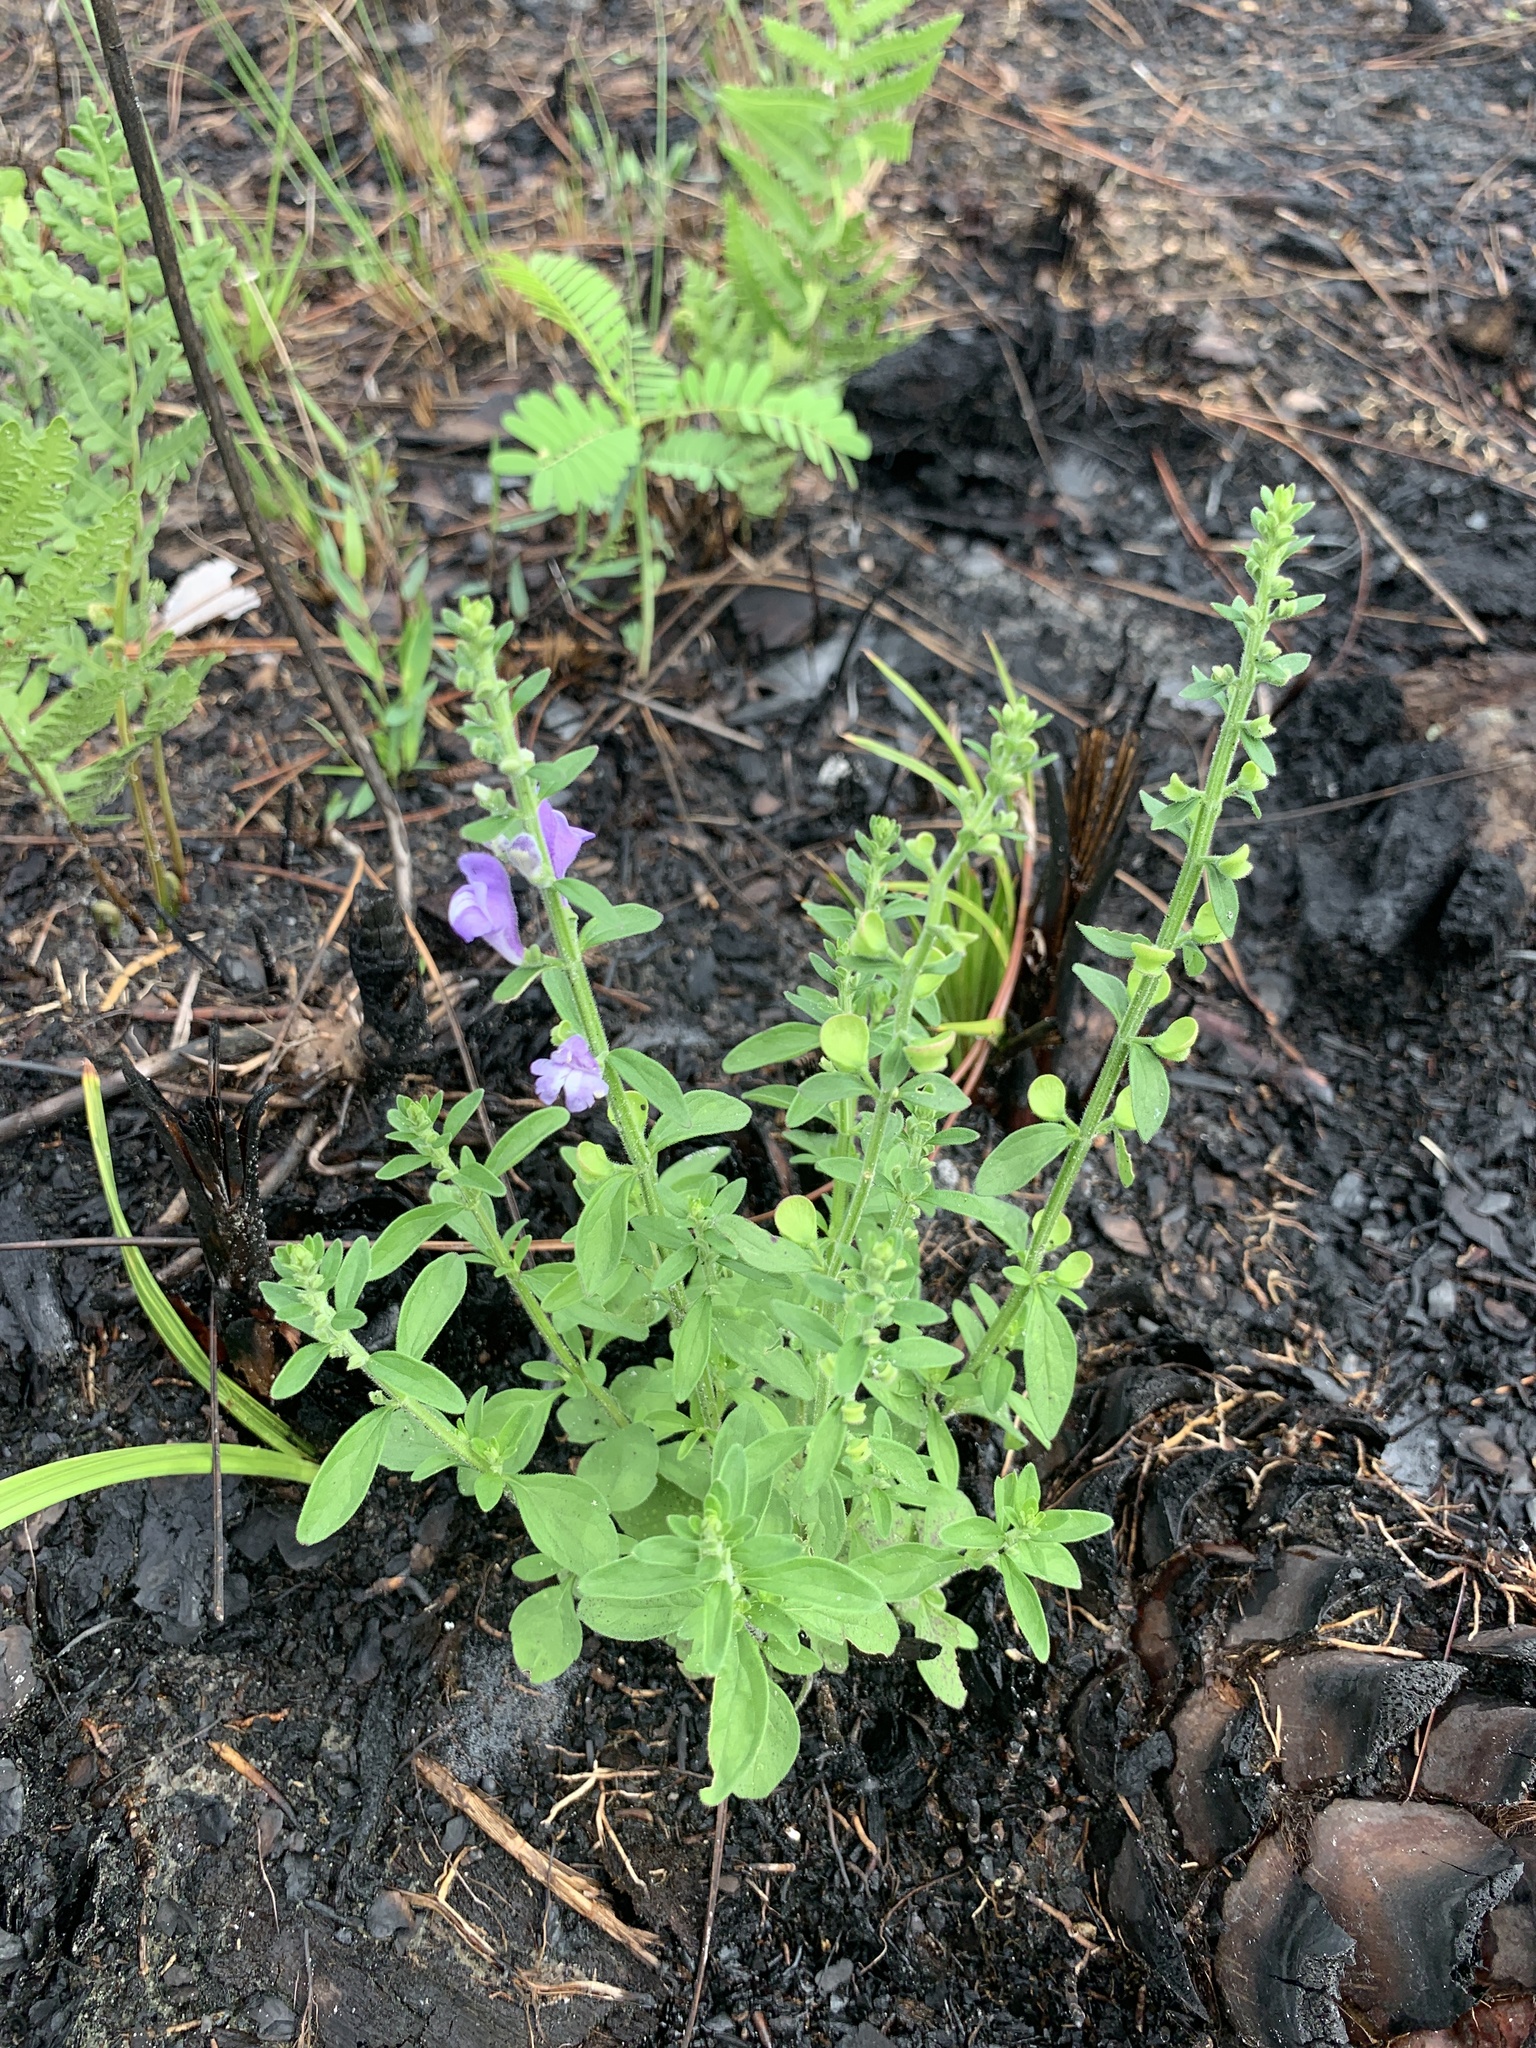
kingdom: Plantae
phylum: Tracheophyta
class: Magnoliopsida
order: Lamiales
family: Lamiaceae
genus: Scutellaria
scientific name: Scutellaria integrifolia
